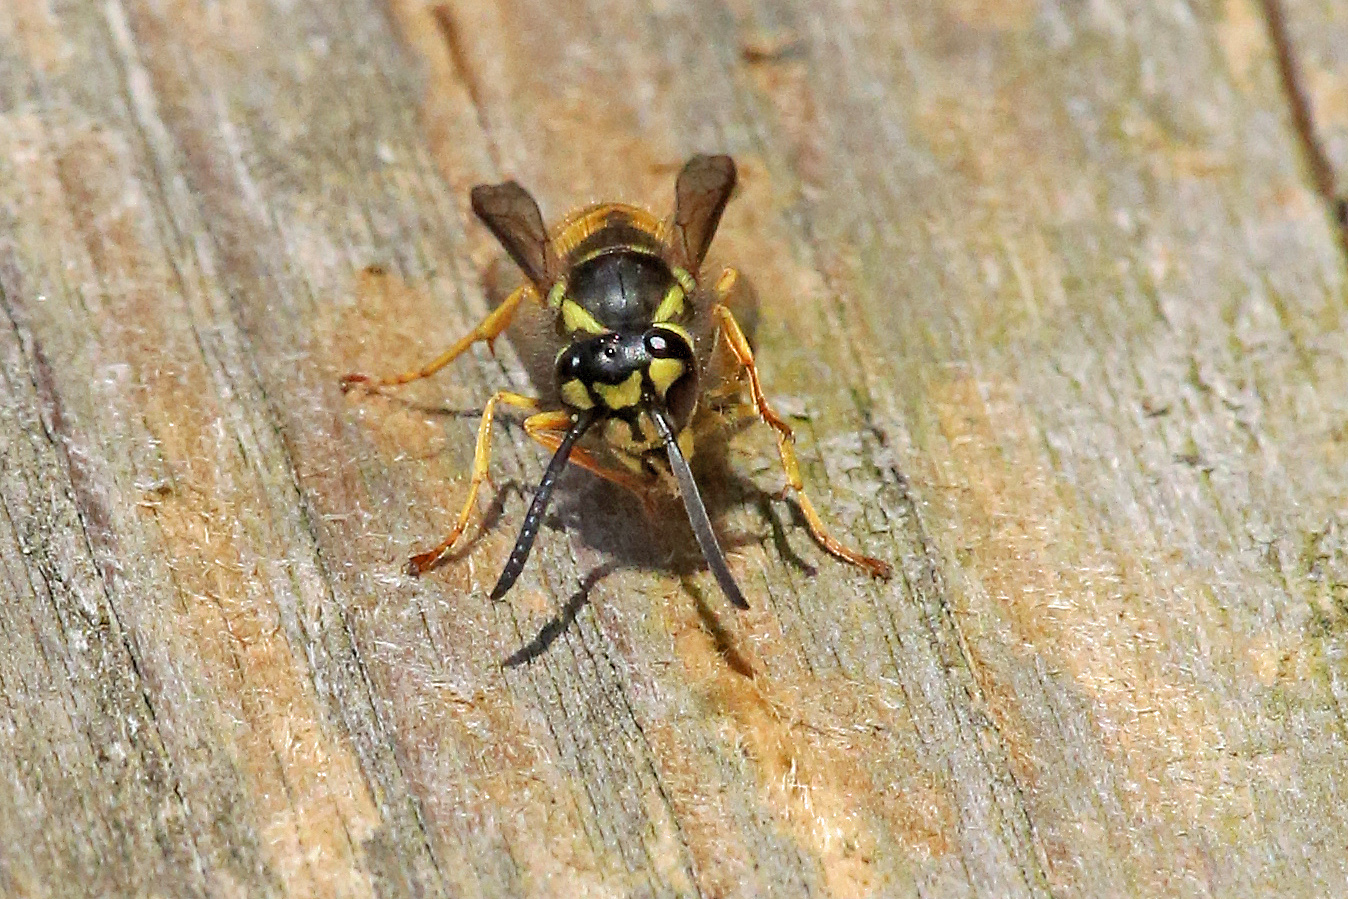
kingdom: Animalia
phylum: Arthropoda
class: Insecta
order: Hymenoptera
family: Vespidae
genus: Vespula
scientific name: Vespula germanica
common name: German wasp
